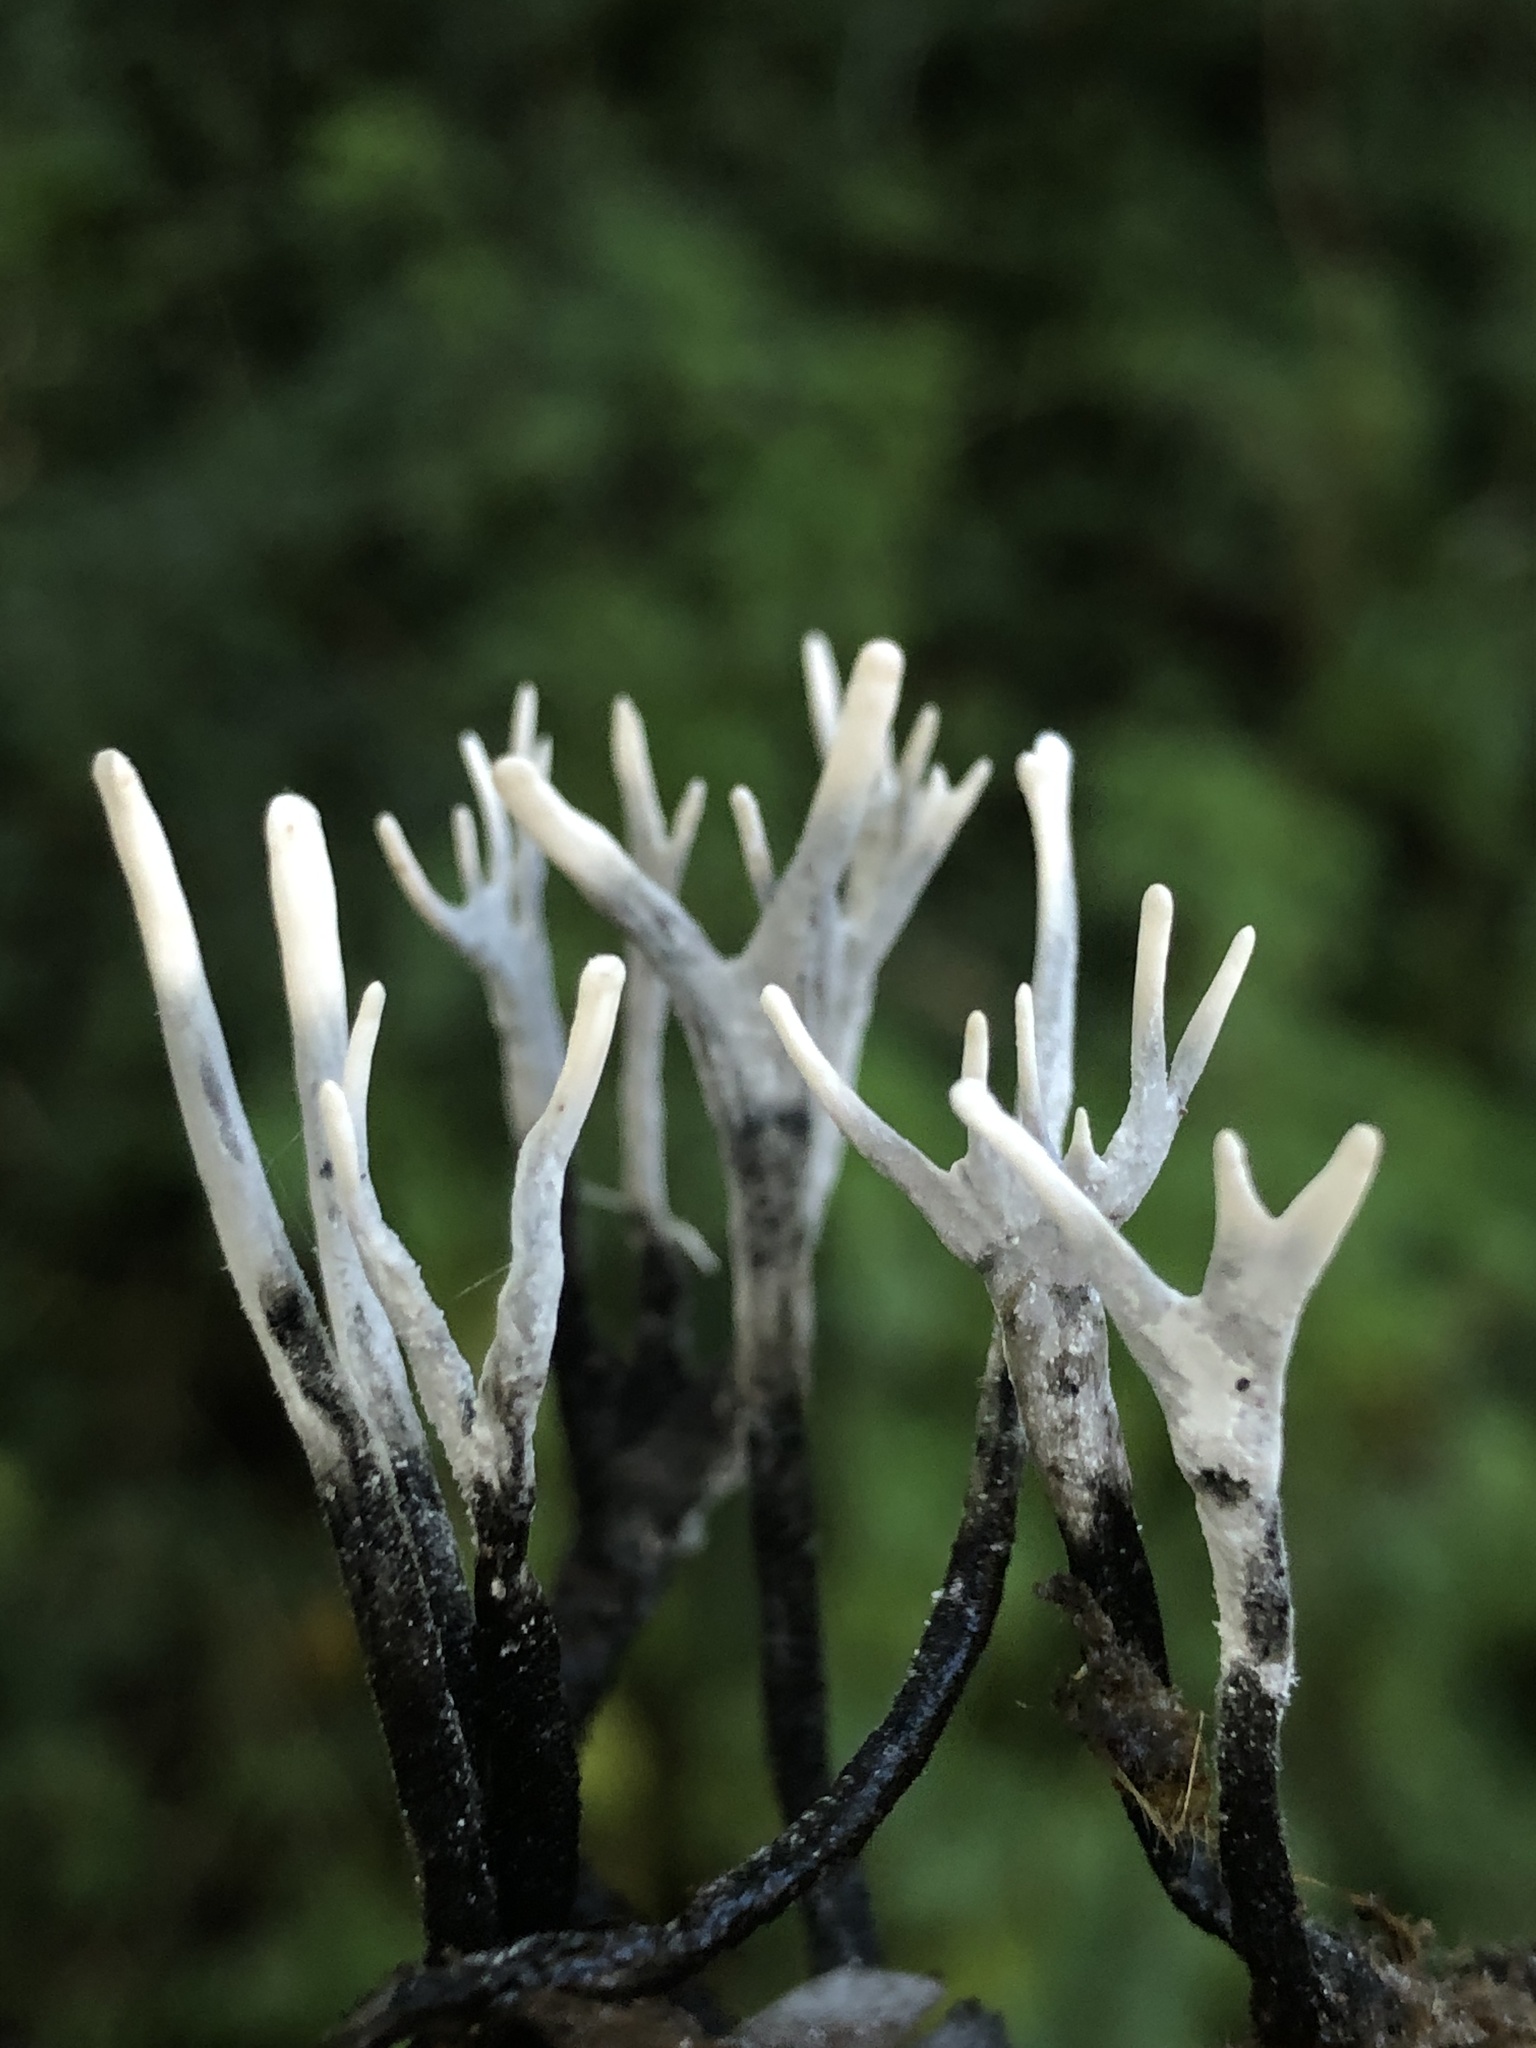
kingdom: Fungi
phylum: Ascomycota
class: Sordariomycetes
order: Xylariales
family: Xylariaceae
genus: Xylaria
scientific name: Xylaria hypoxylon
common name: Candle-snuff fungus
